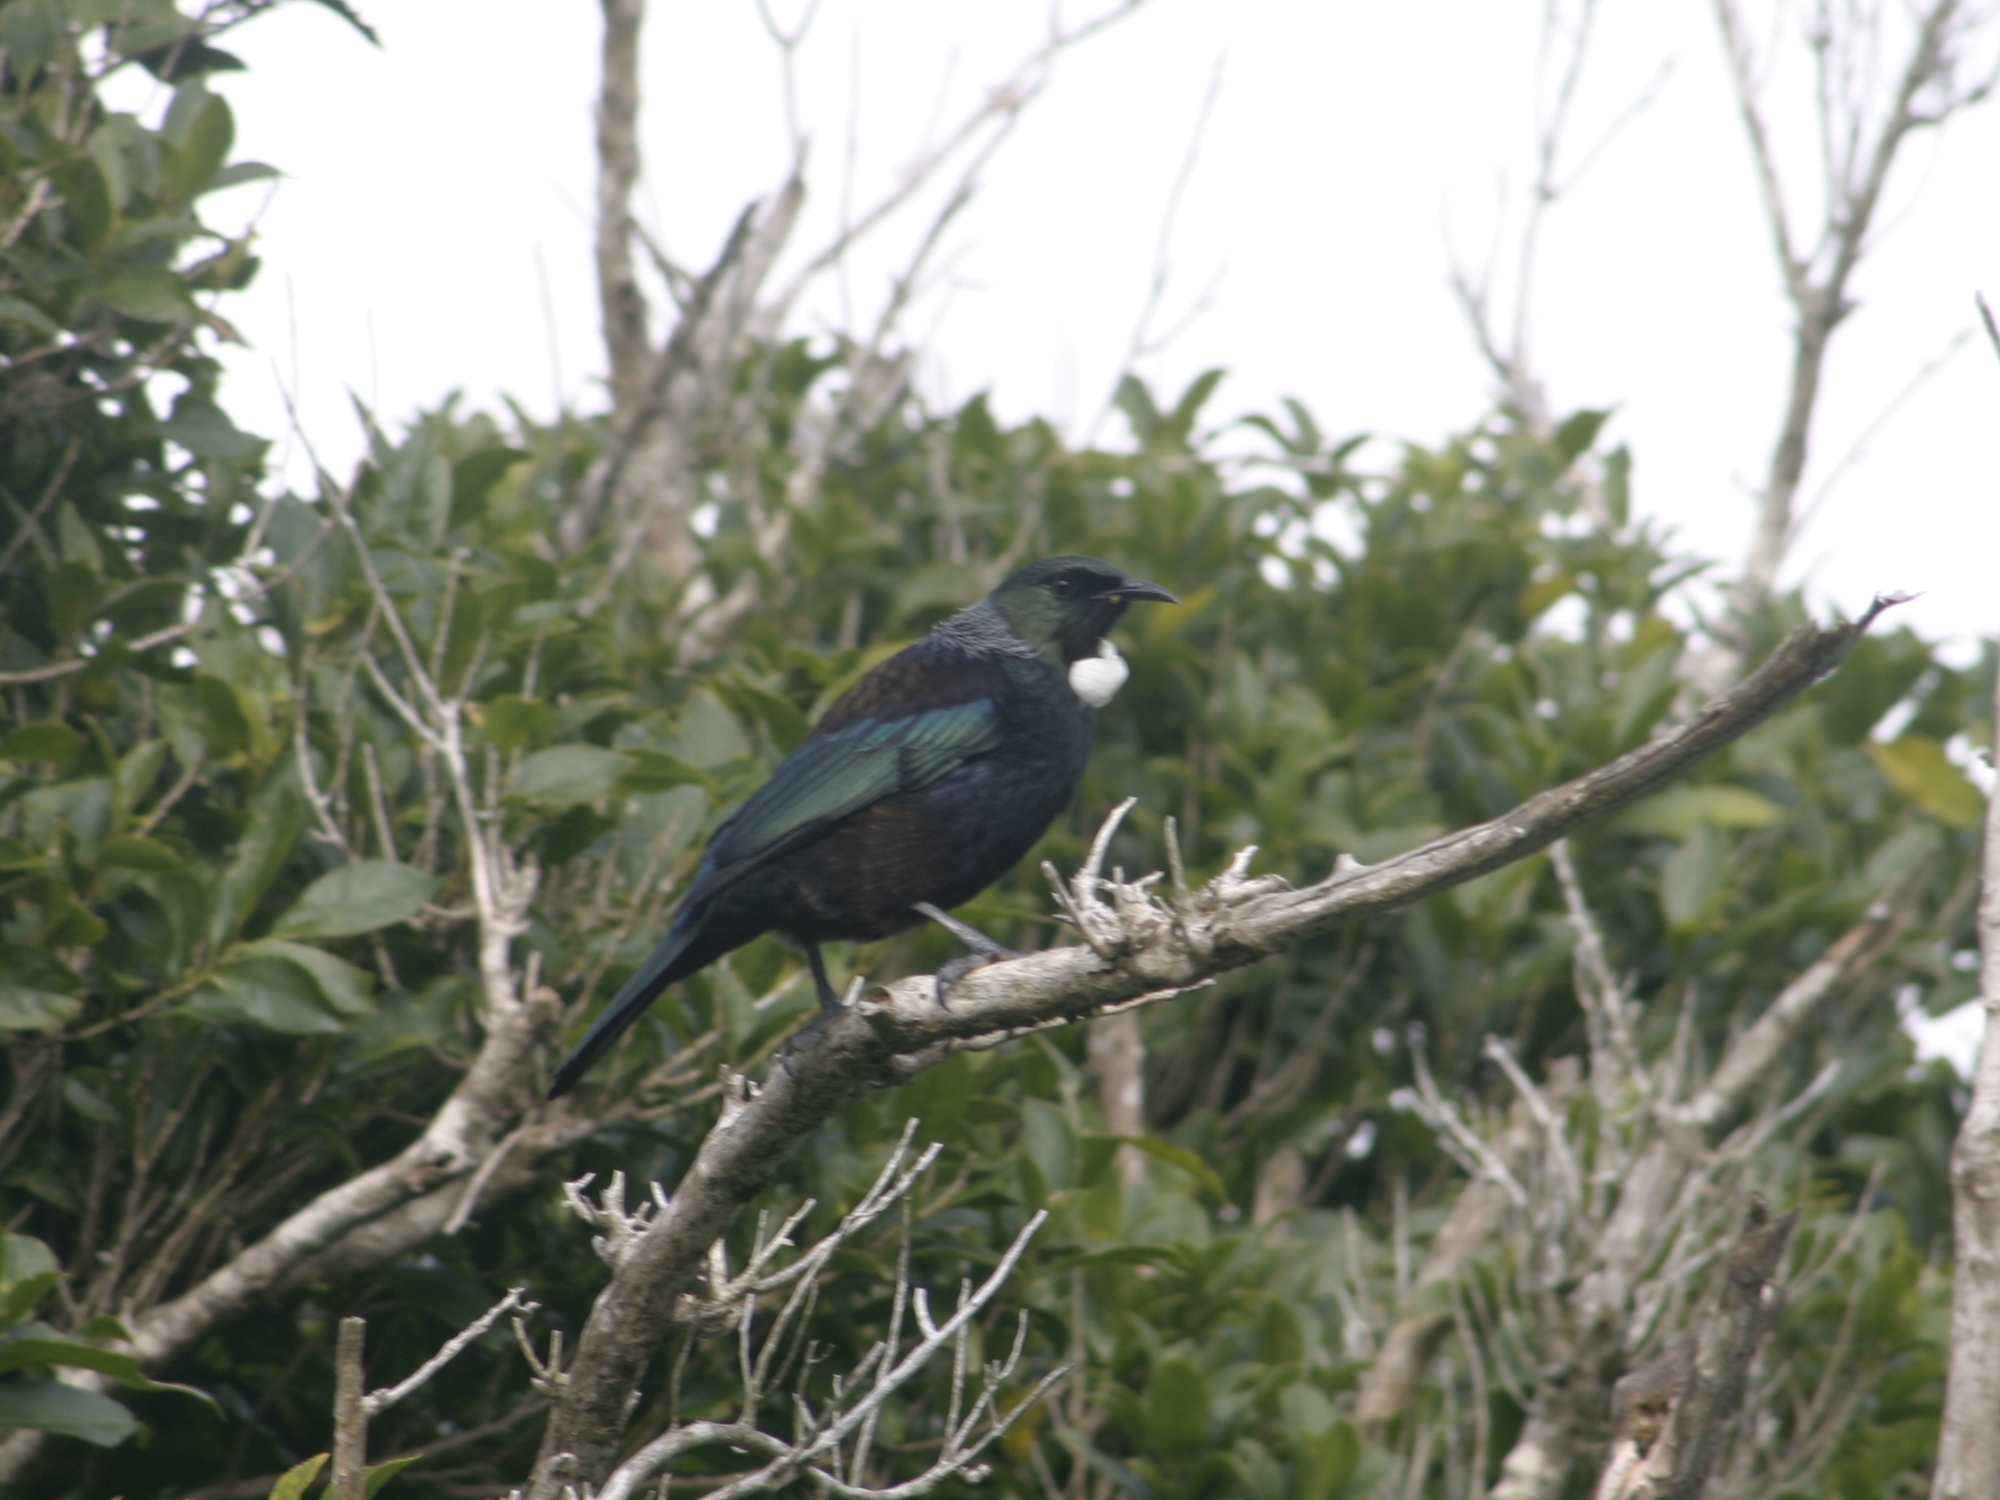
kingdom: Animalia
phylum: Chordata
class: Aves
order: Passeriformes
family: Meliphagidae
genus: Prosthemadera
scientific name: Prosthemadera novaeseelandiae
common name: Tui
